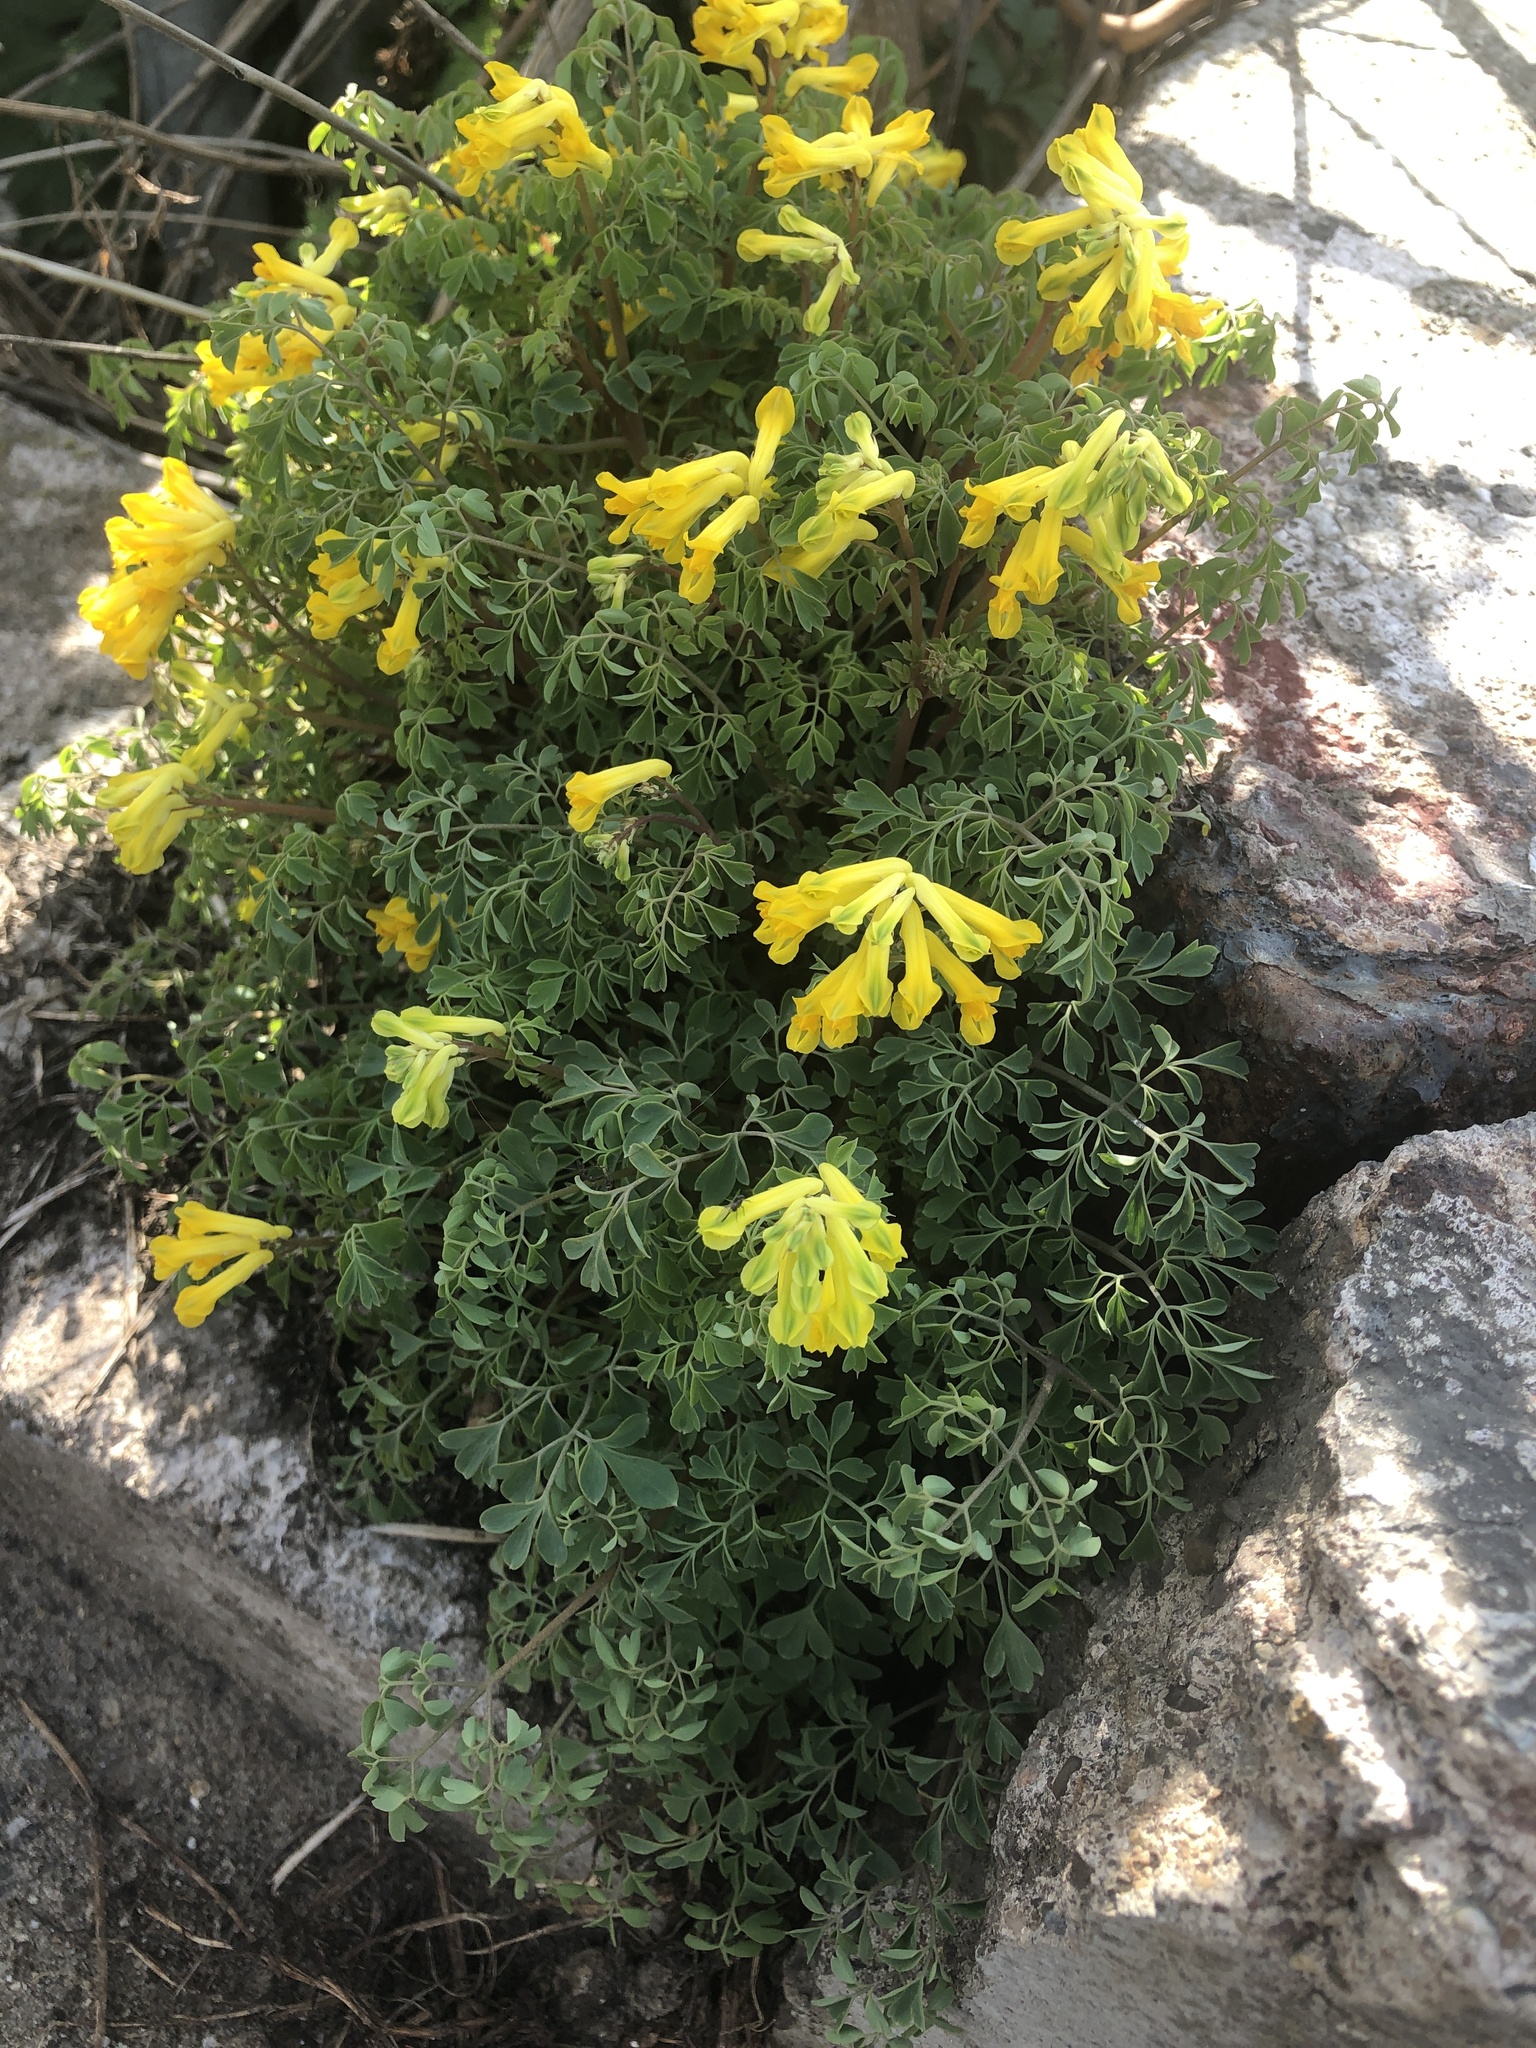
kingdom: Plantae
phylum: Tracheophyta
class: Magnoliopsida
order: Ranunculales
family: Papaveraceae
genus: Pseudofumaria
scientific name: Pseudofumaria lutea
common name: Yellow corydalis
